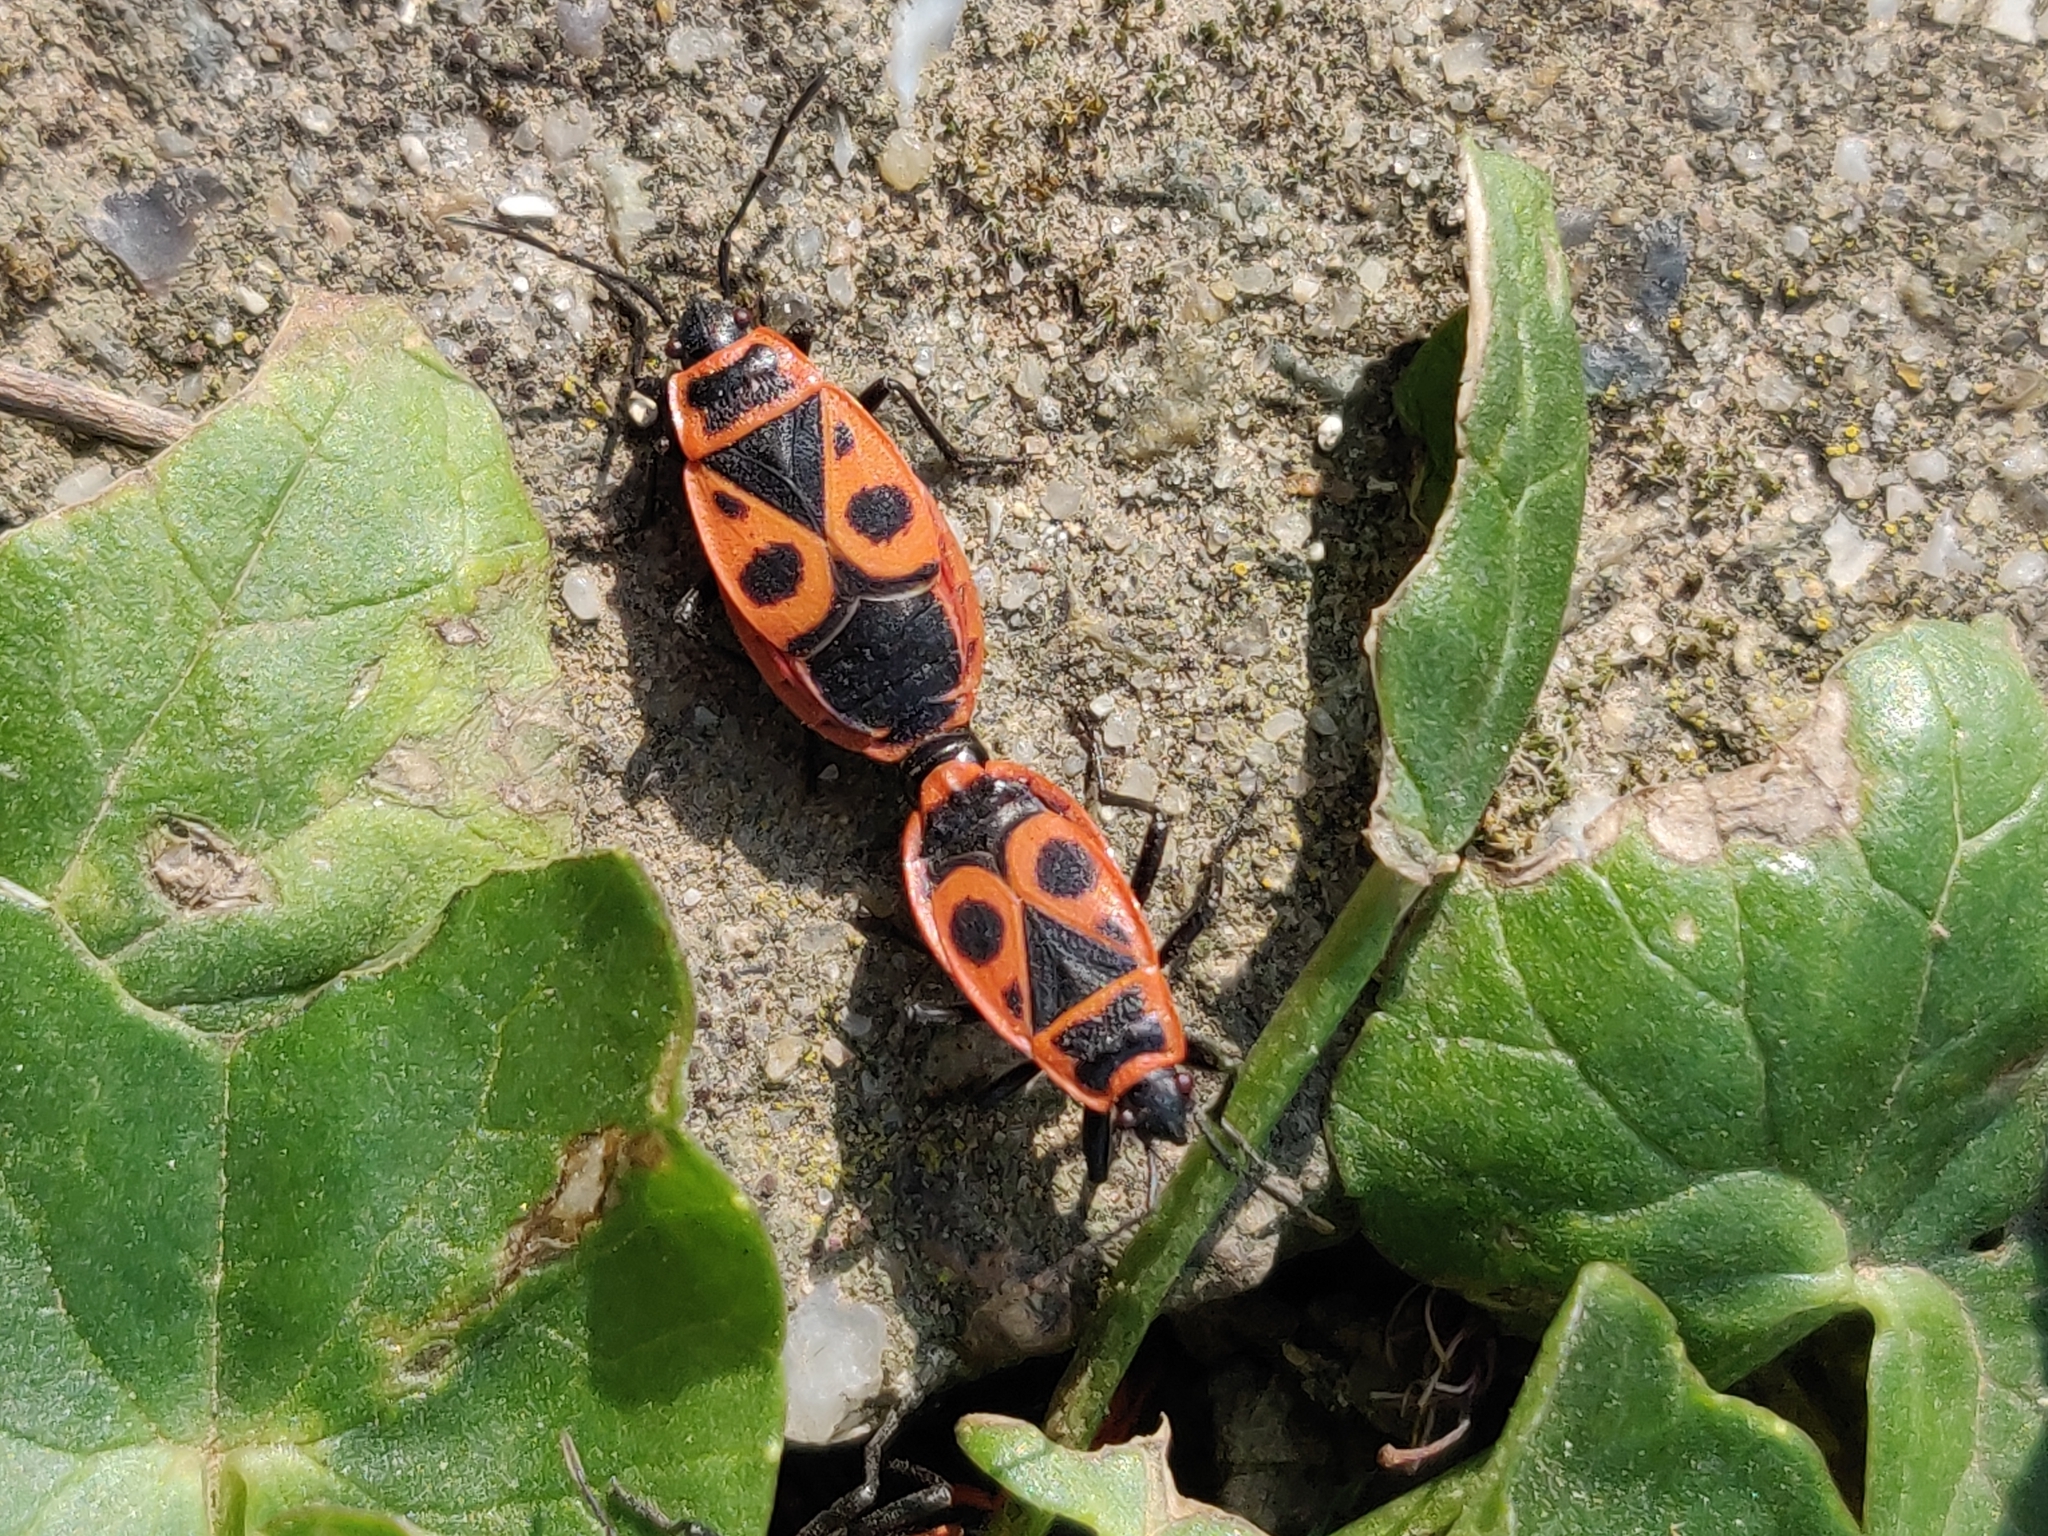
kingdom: Animalia
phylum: Arthropoda
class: Insecta
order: Hemiptera
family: Pyrrhocoridae
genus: Pyrrhocoris
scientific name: Pyrrhocoris apterus
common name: Firebug
